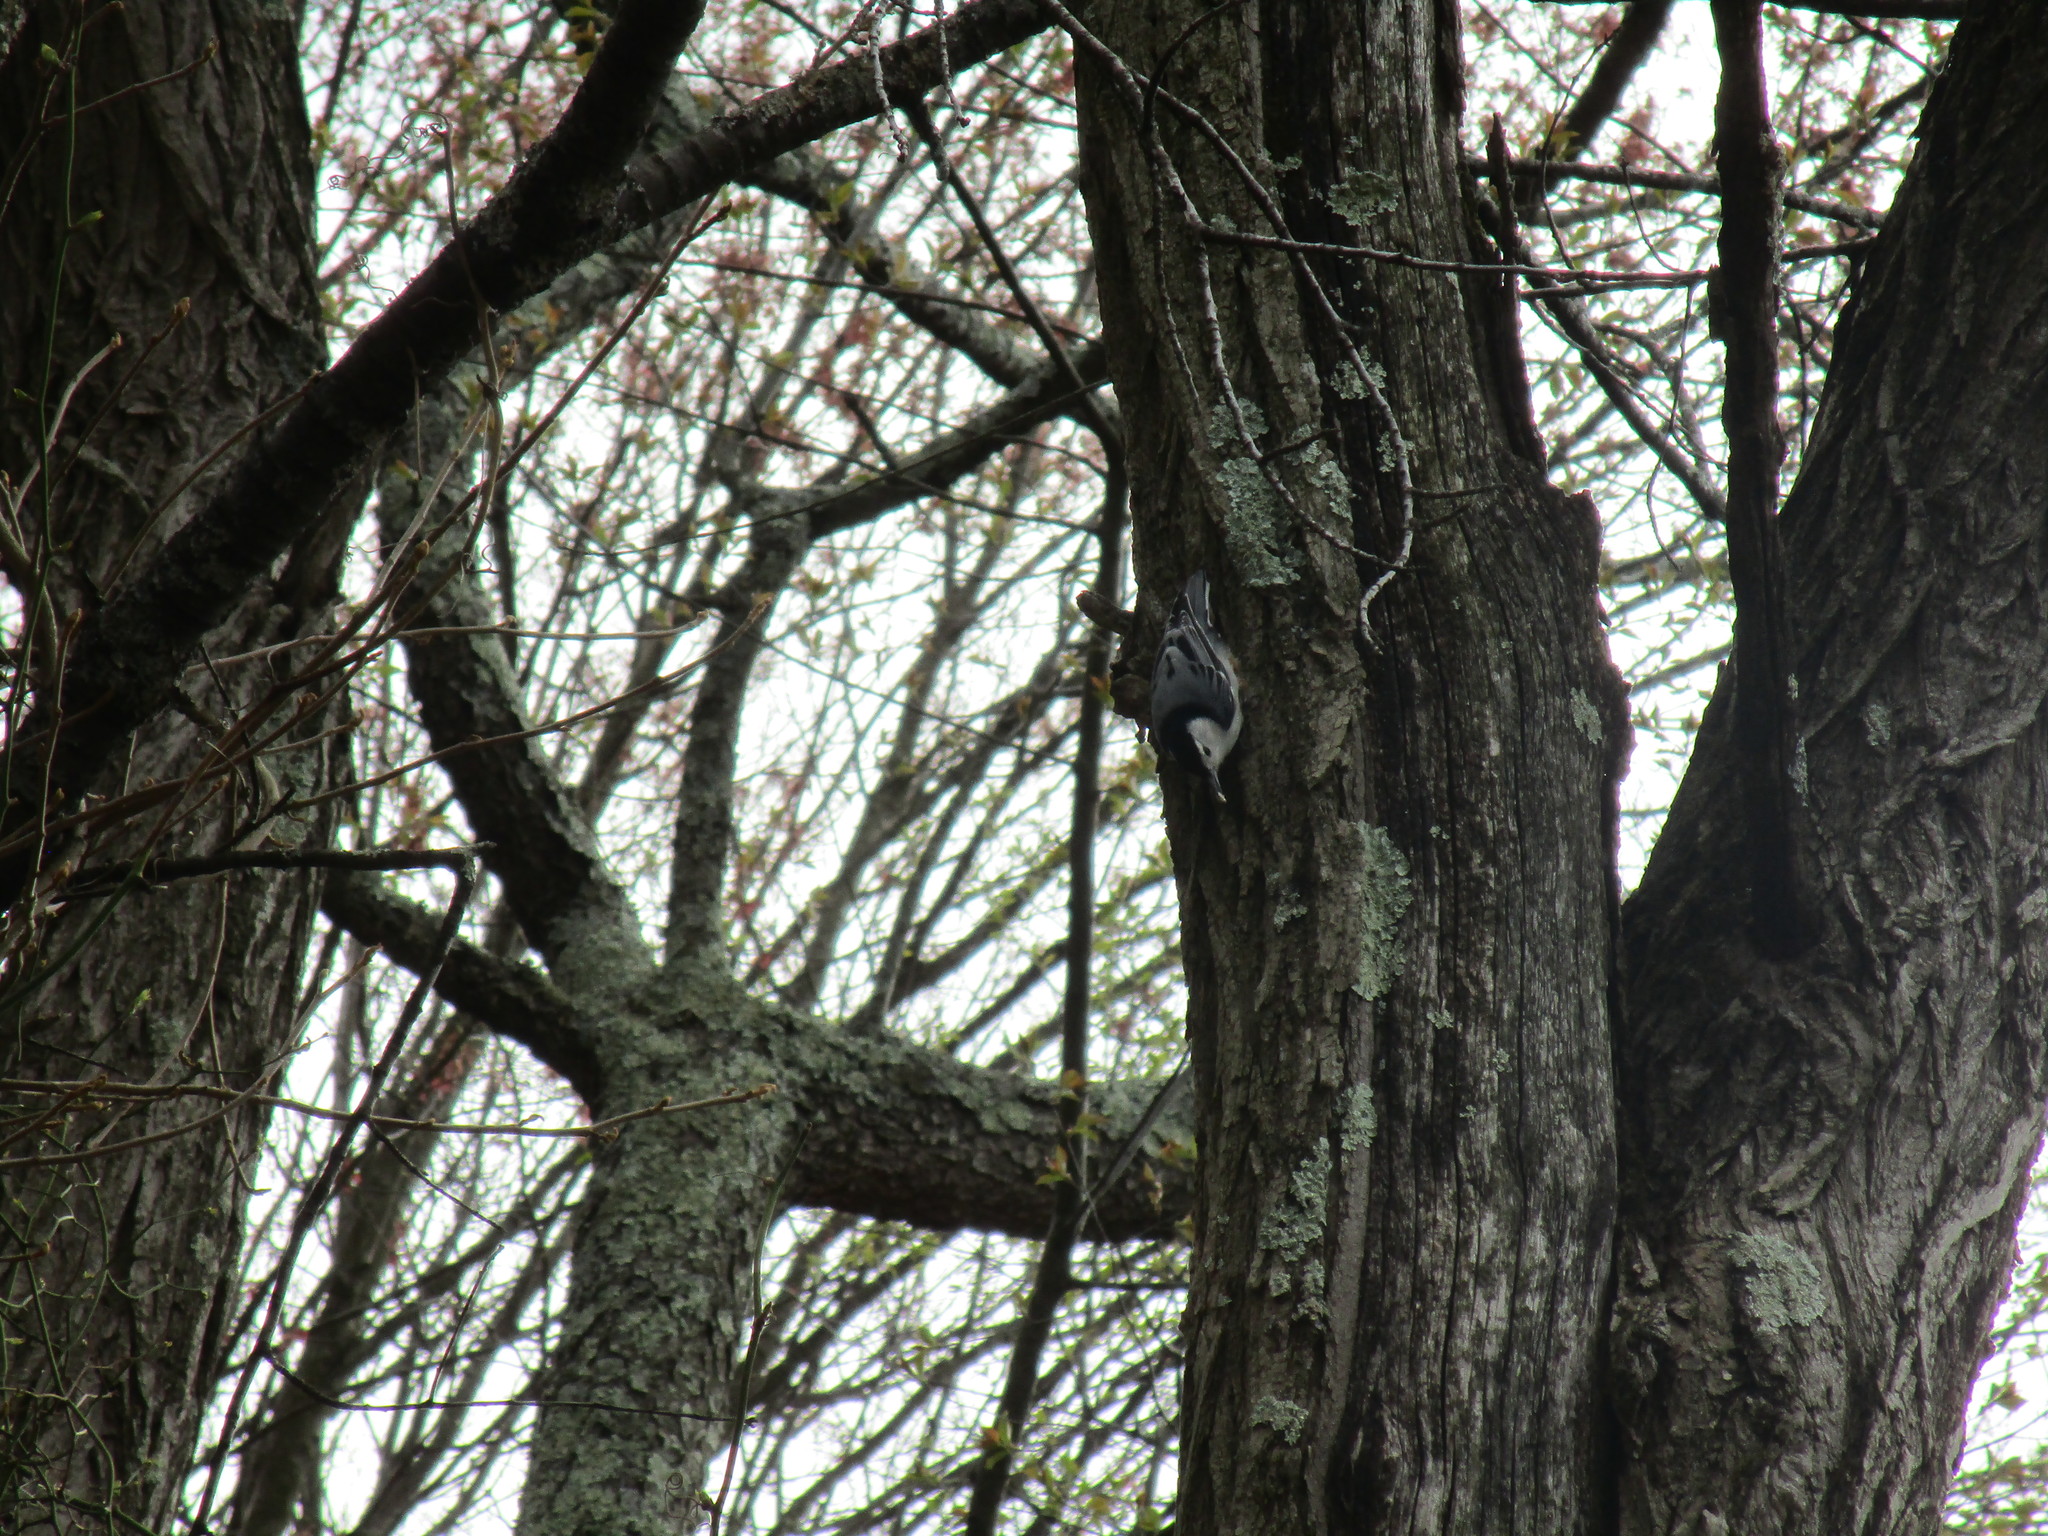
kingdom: Animalia
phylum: Chordata
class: Aves
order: Passeriformes
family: Sittidae
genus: Sitta
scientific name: Sitta carolinensis
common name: White-breasted nuthatch
